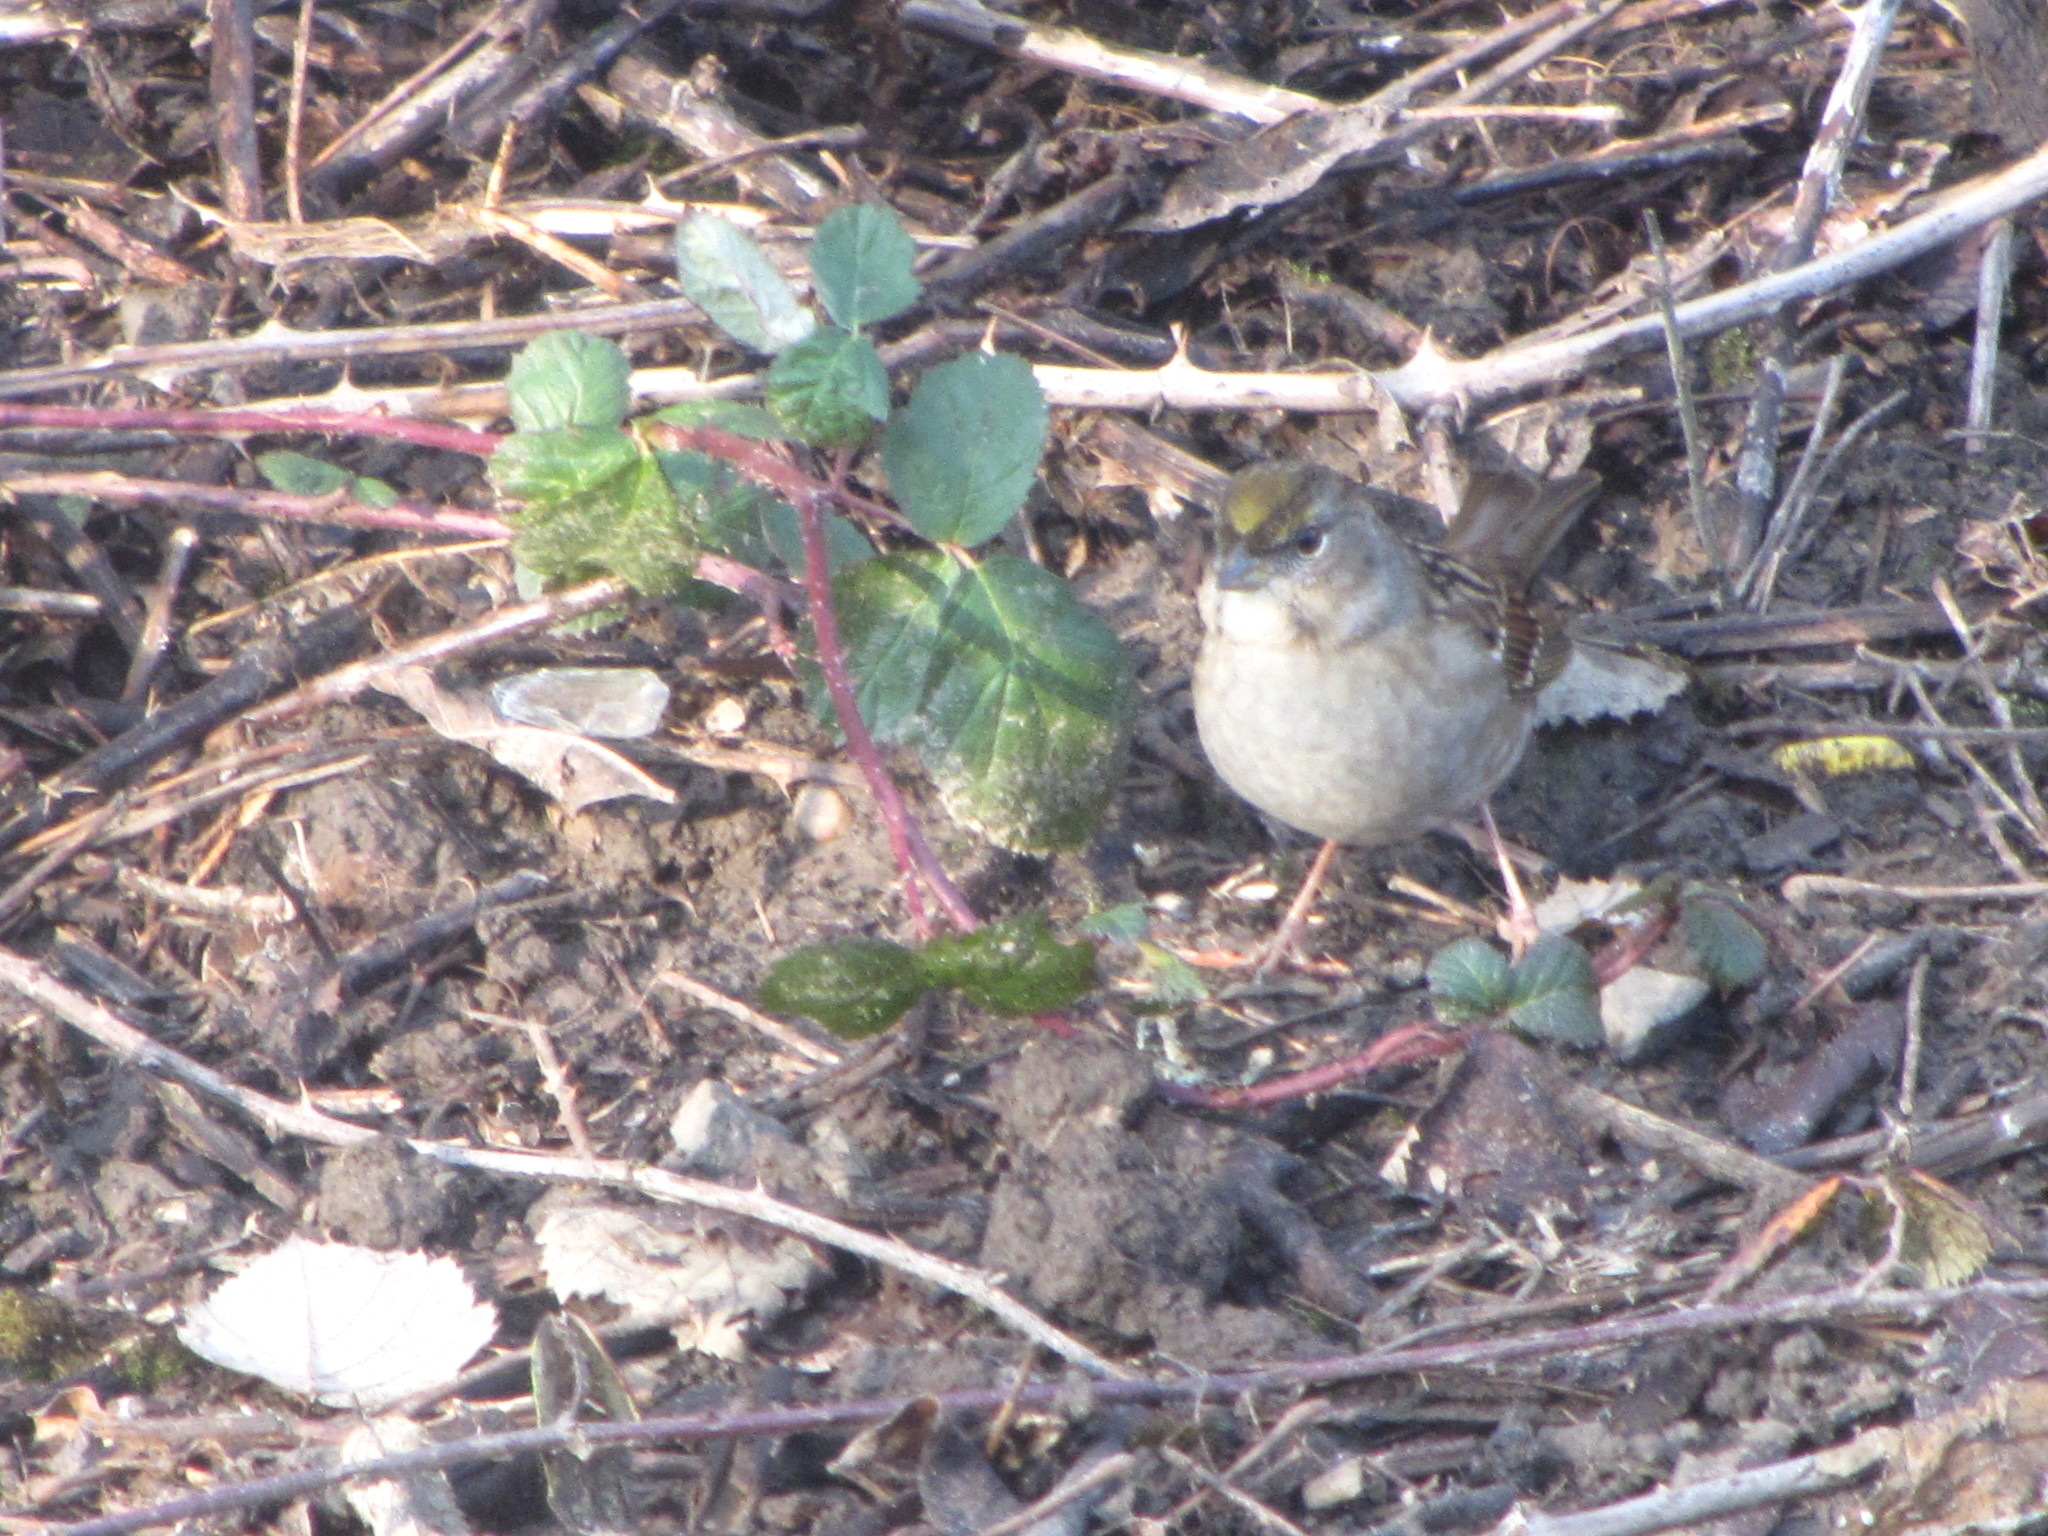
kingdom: Animalia
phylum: Chordata
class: Aves
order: Passeriformes
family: Passerellidae
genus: Zonotrichia
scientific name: Zonotrichia atricapilla
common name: Golden-crowned sparrow
